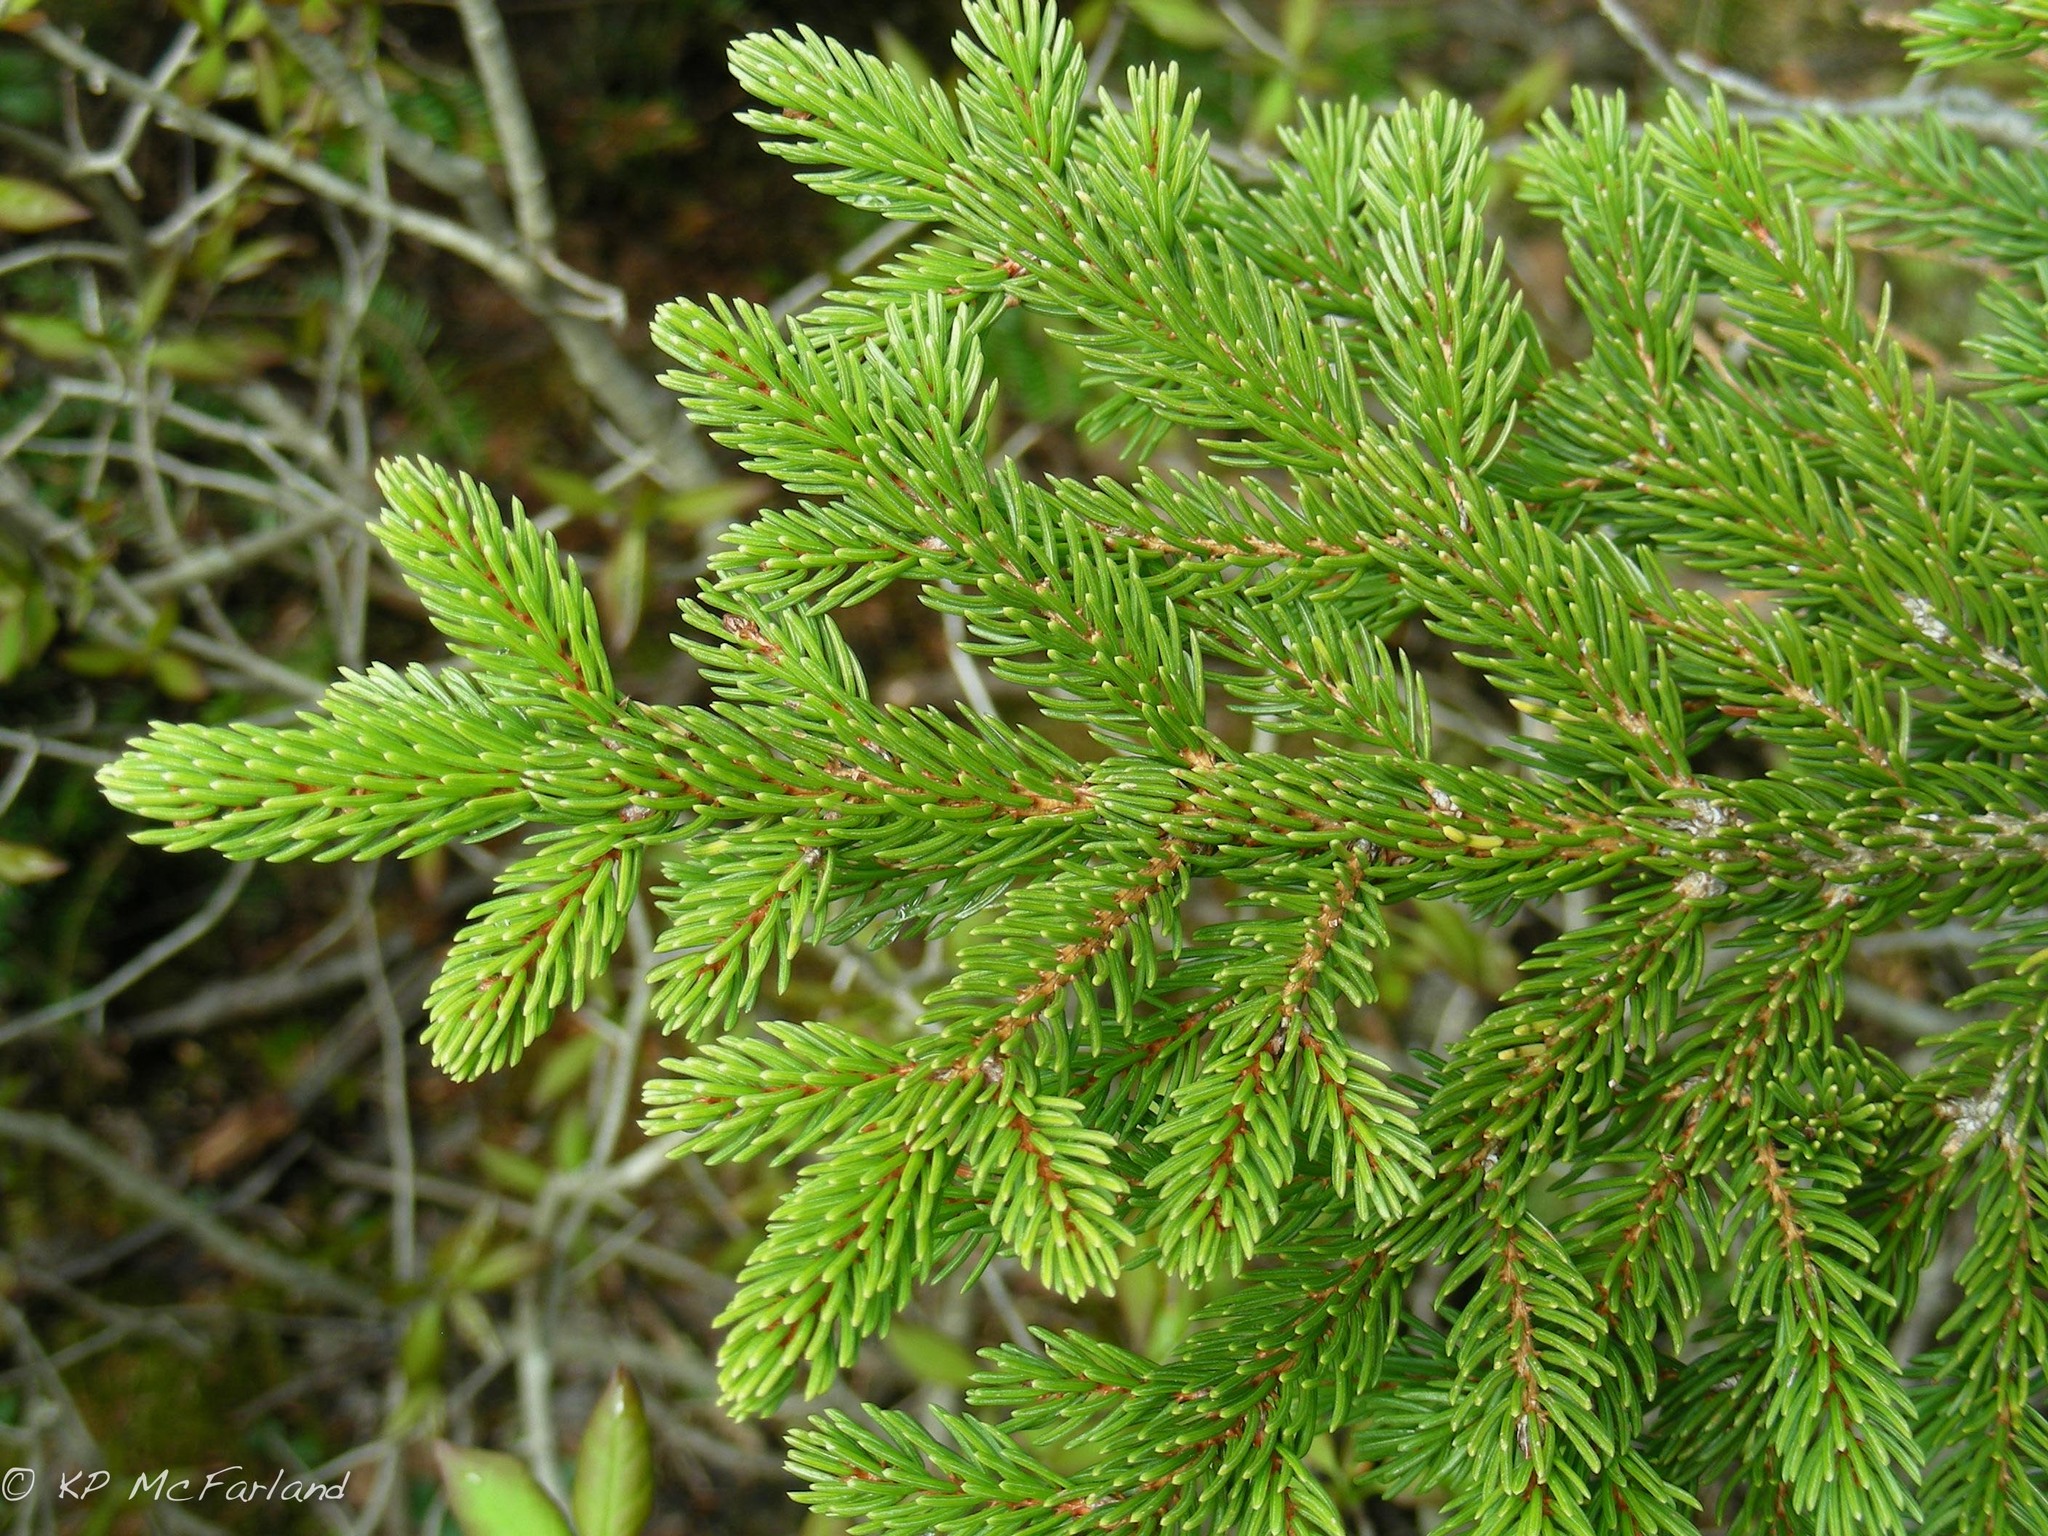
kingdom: Plantae
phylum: Tracheophyta
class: Pinopsida
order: Pinales
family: Pinaceae
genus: Picea
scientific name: Picea rubens
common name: Red spruce
